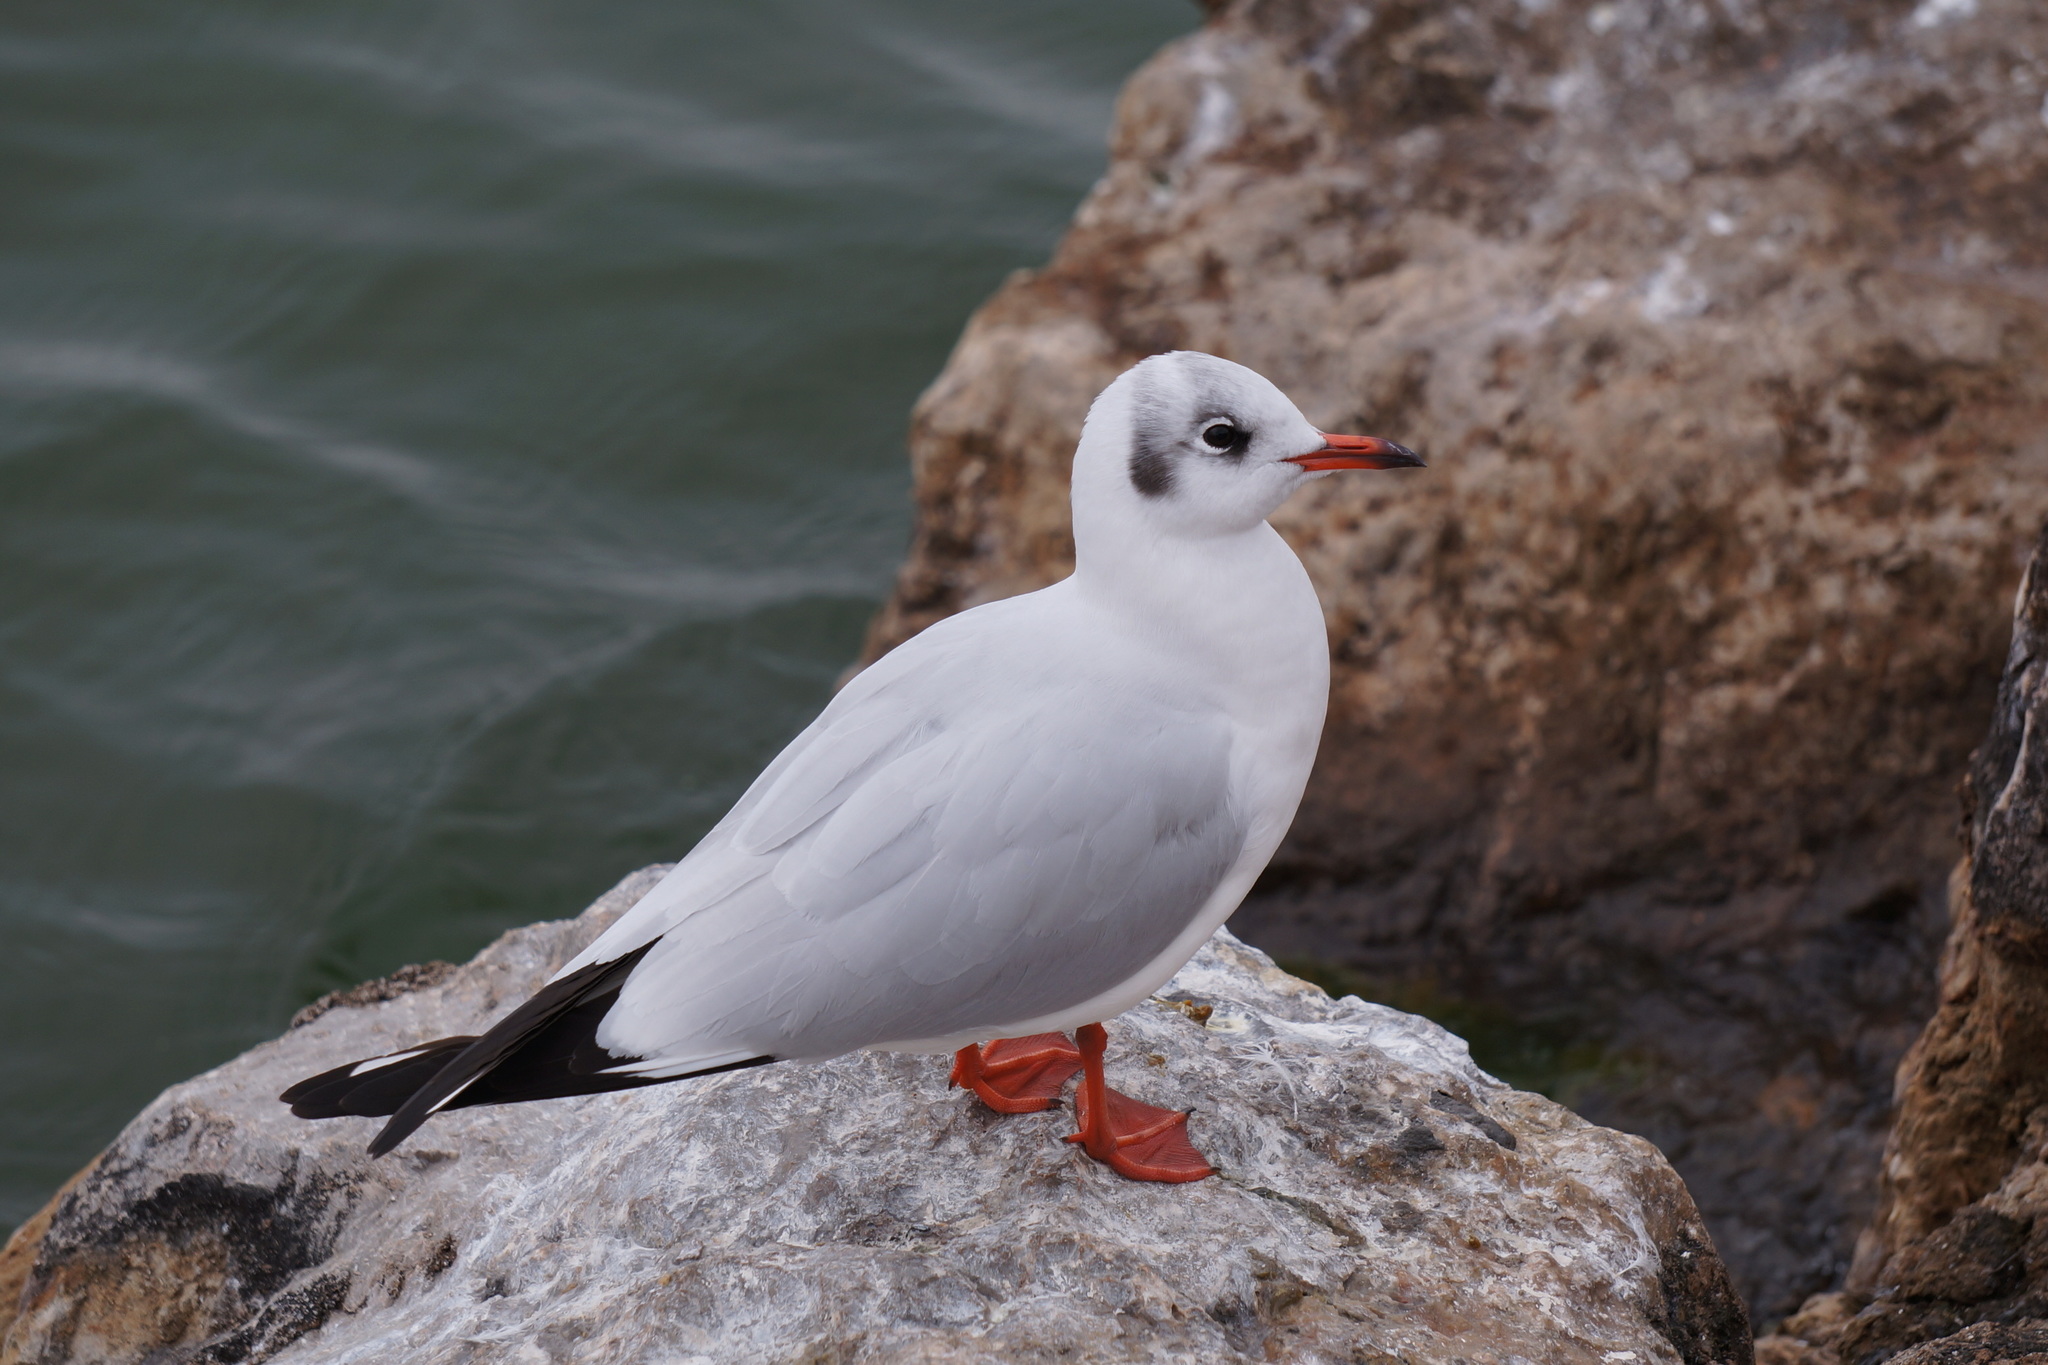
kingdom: Animalia
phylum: Chordata
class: Aves
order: Charadriiformes
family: Laridae
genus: Chroicocephalus
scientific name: Chroicocephalus ridibundus
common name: Black-headed gull
